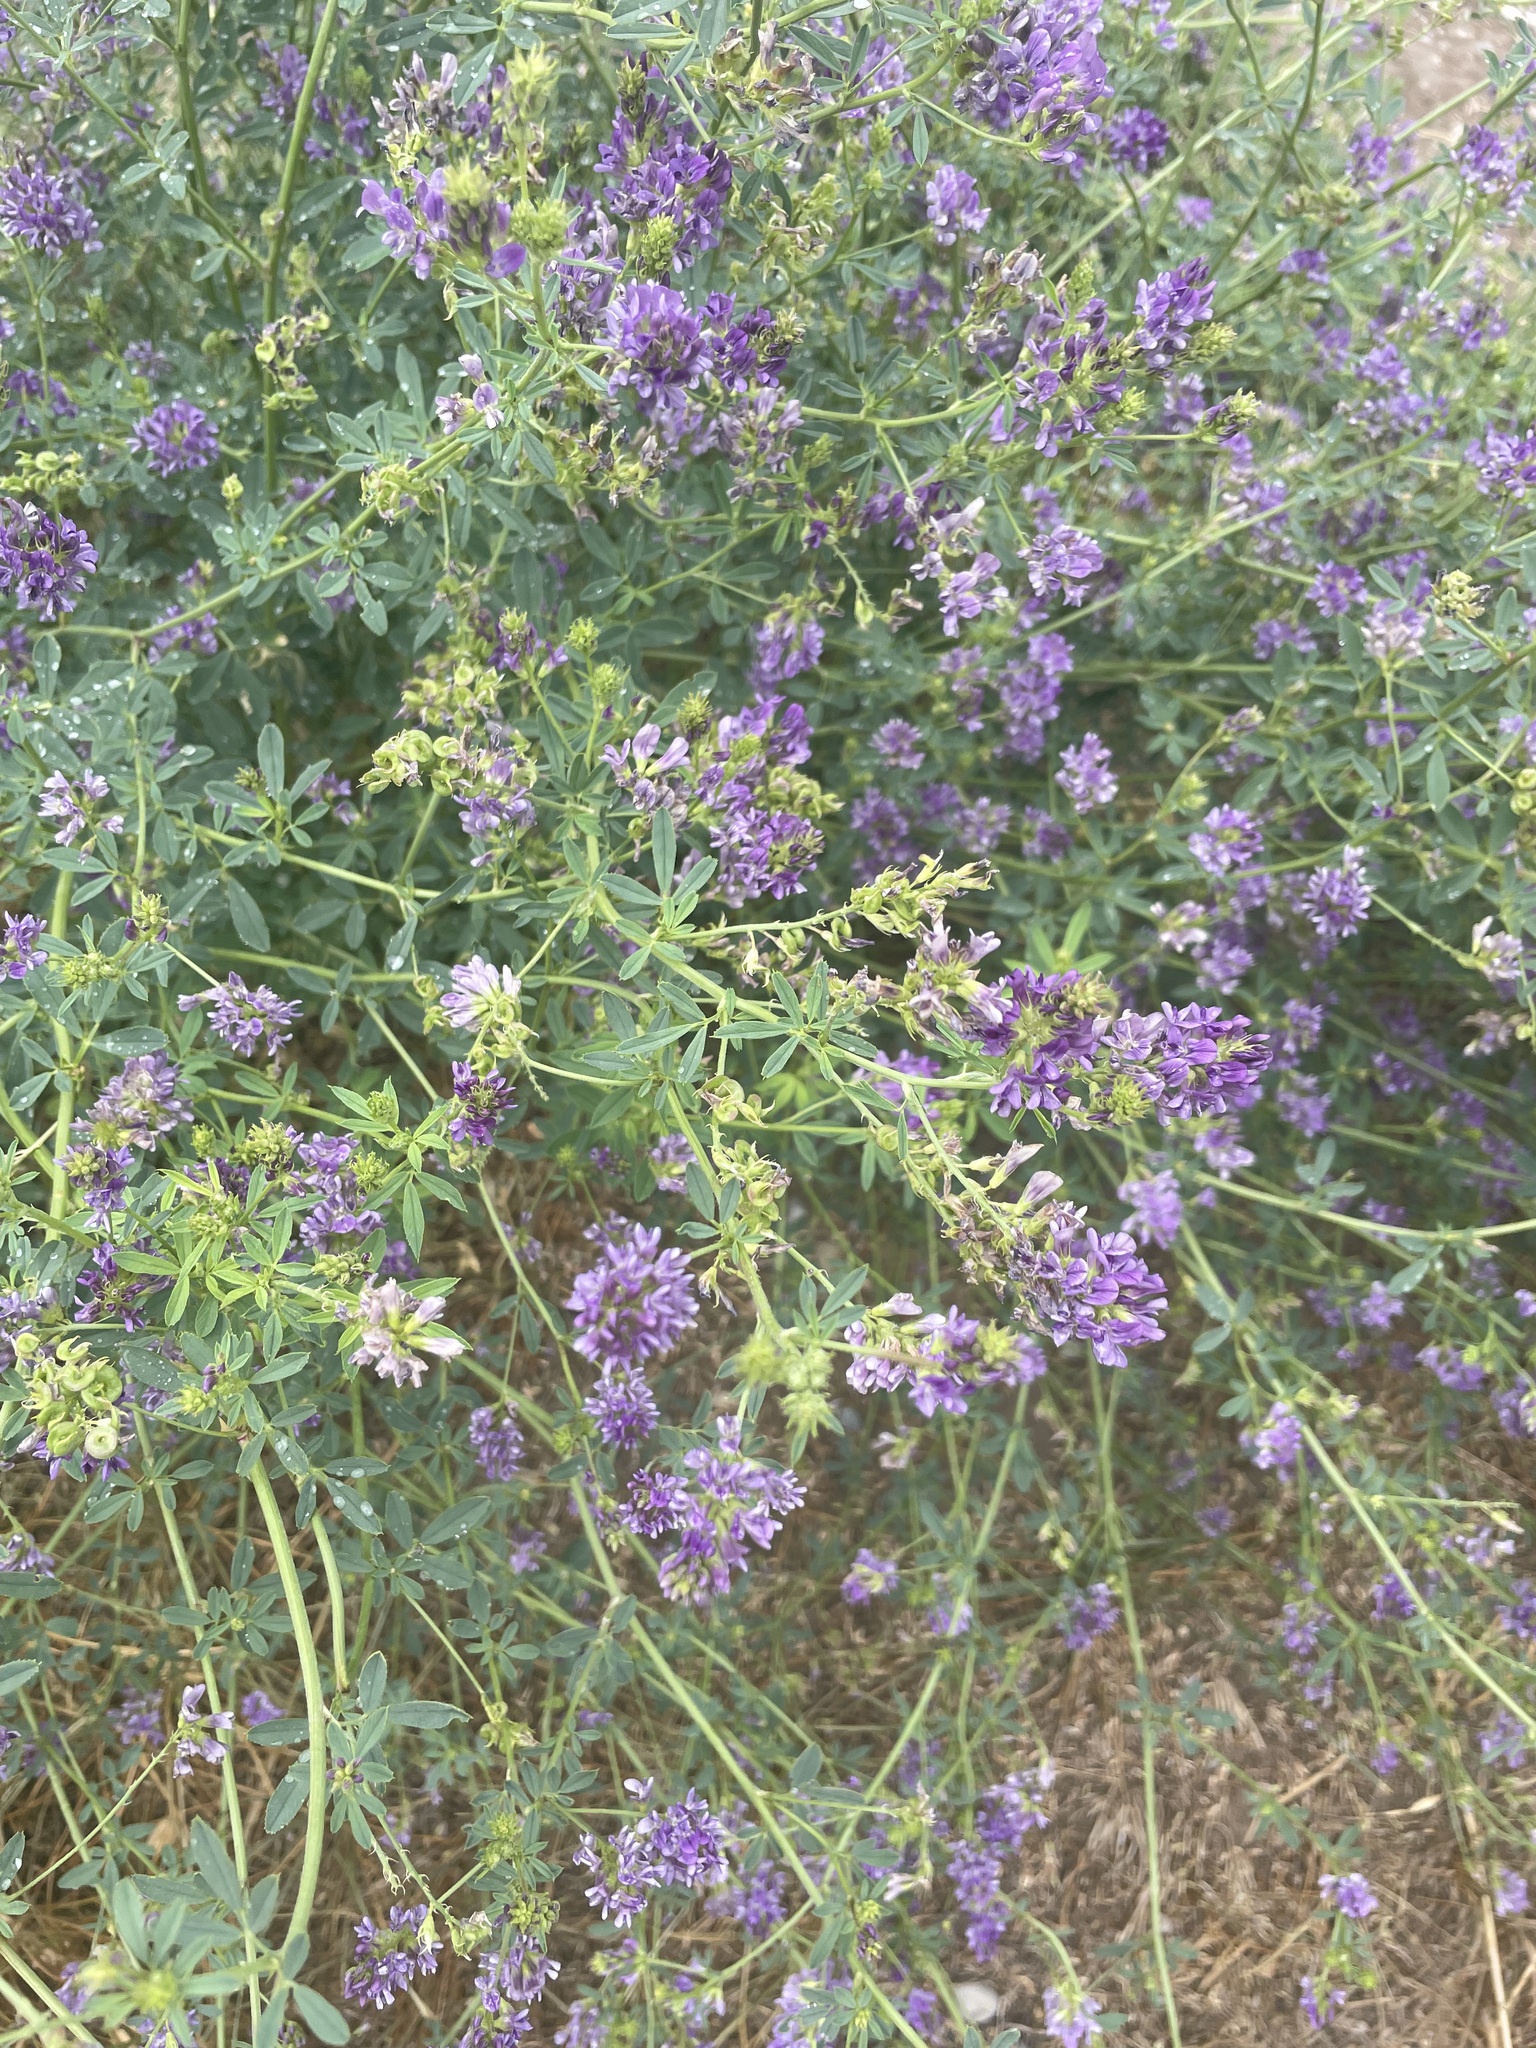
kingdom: Plantae
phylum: Tracheophyta
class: Magnoliopsida
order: Fabales
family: Fabaceae
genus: Medicago
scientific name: Medicago sativa
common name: Alfalfa
